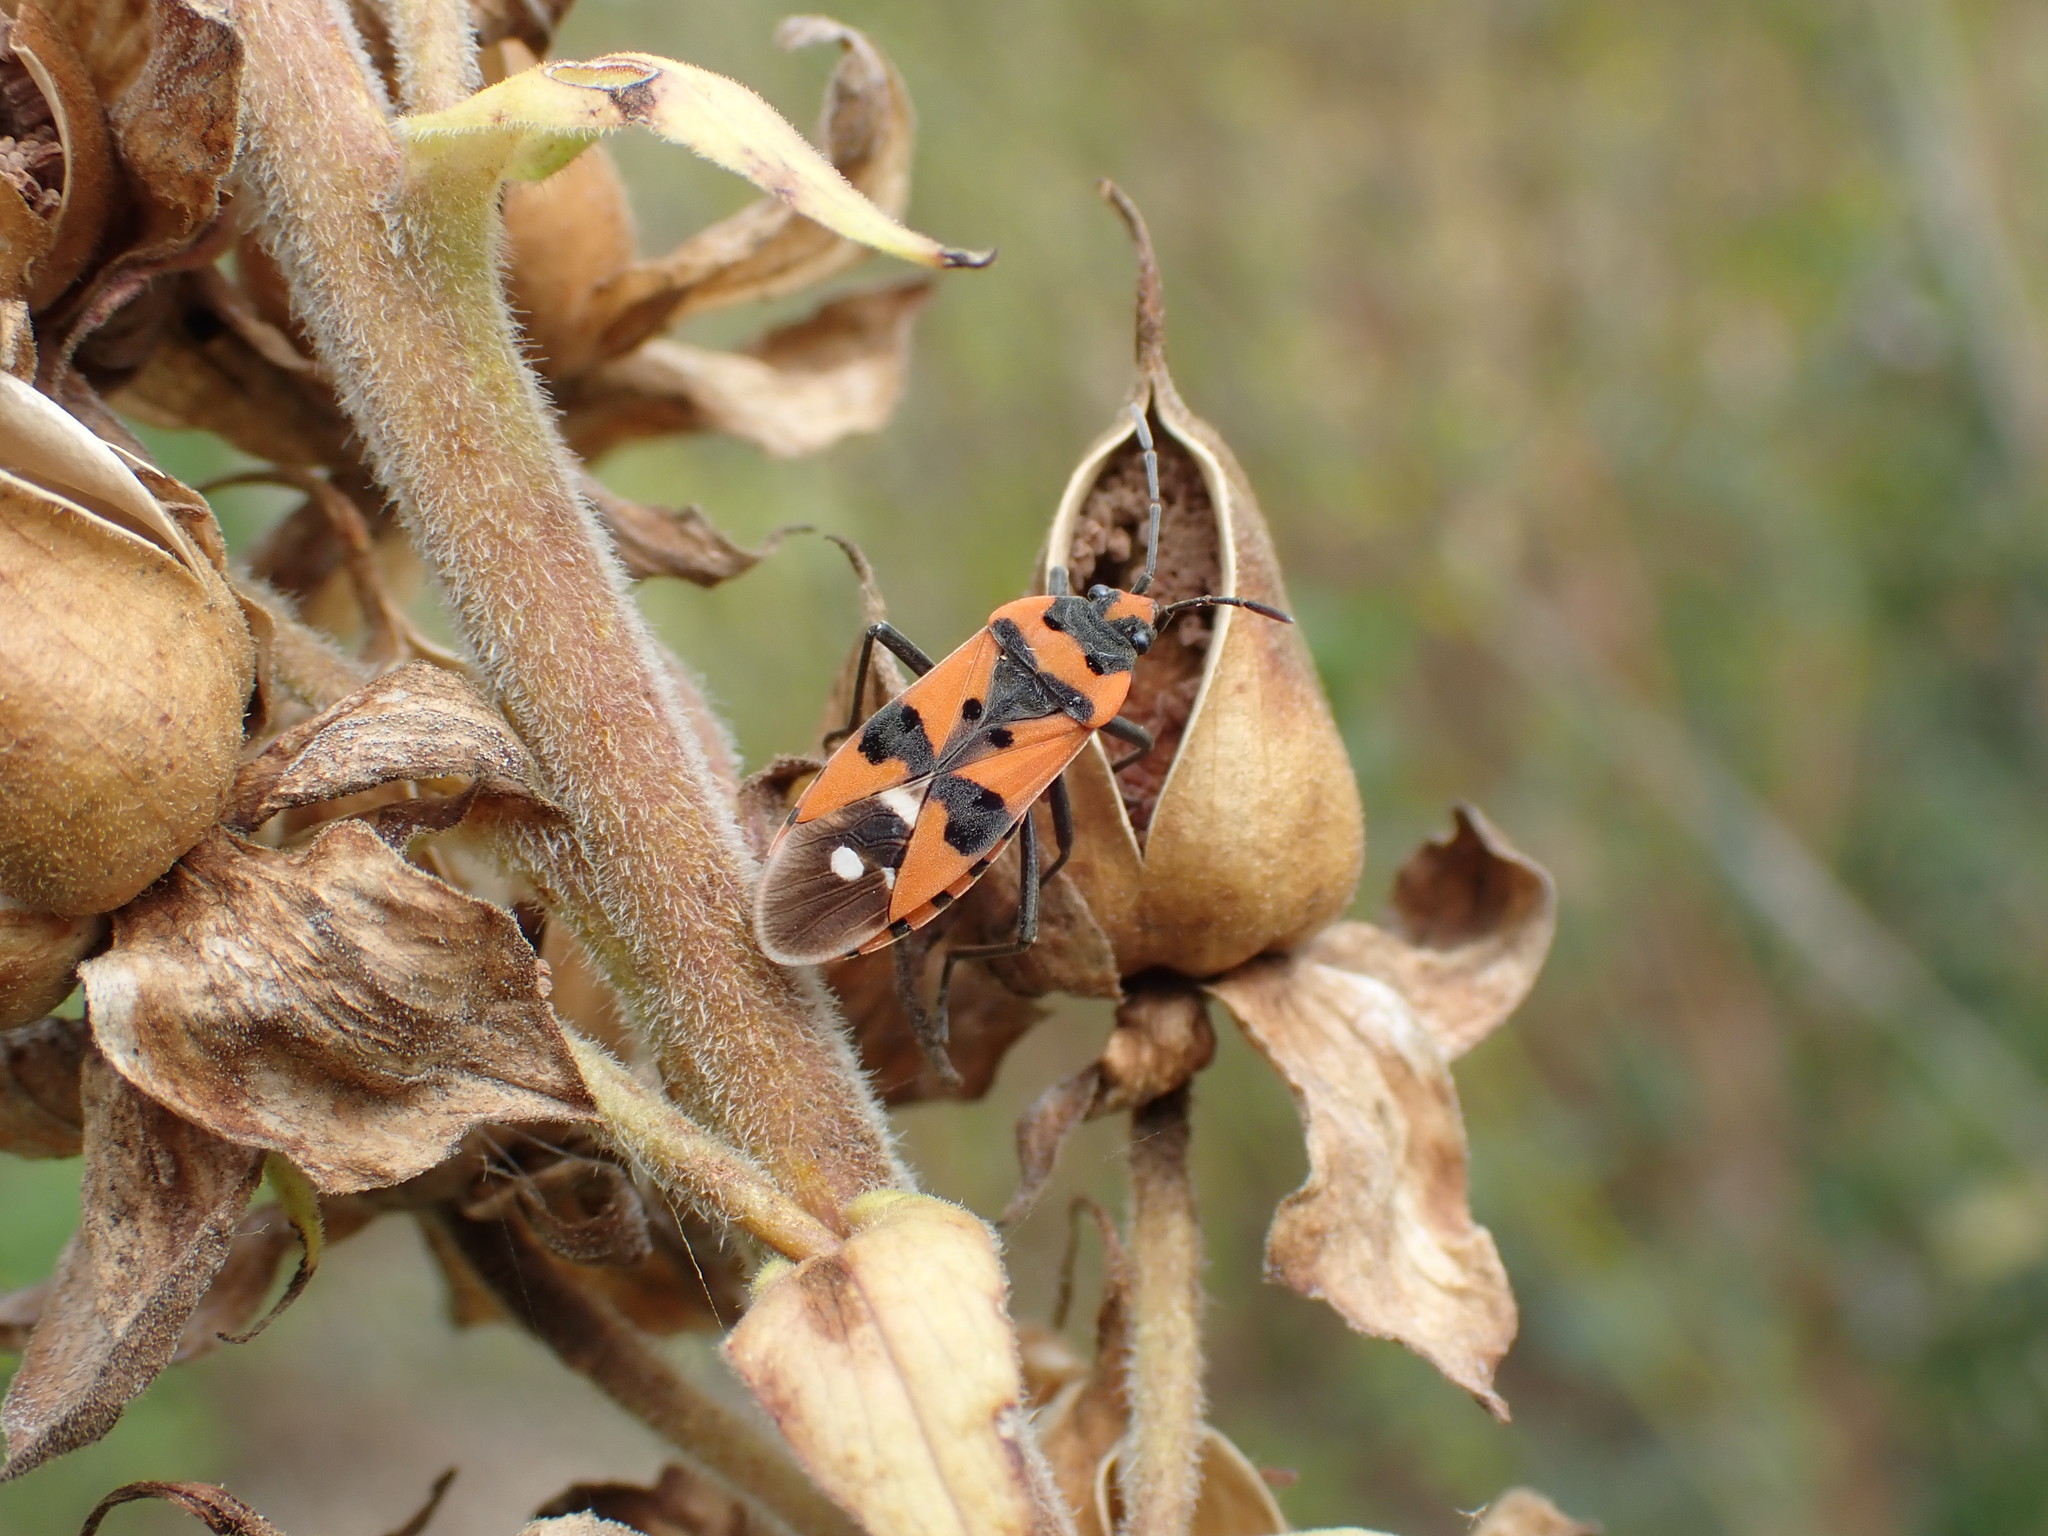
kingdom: Animalia
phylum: Arthropoda
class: Insecta
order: Hemiptera
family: Lygaeidae
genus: Lygaeus
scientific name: Lygaeus equestris
